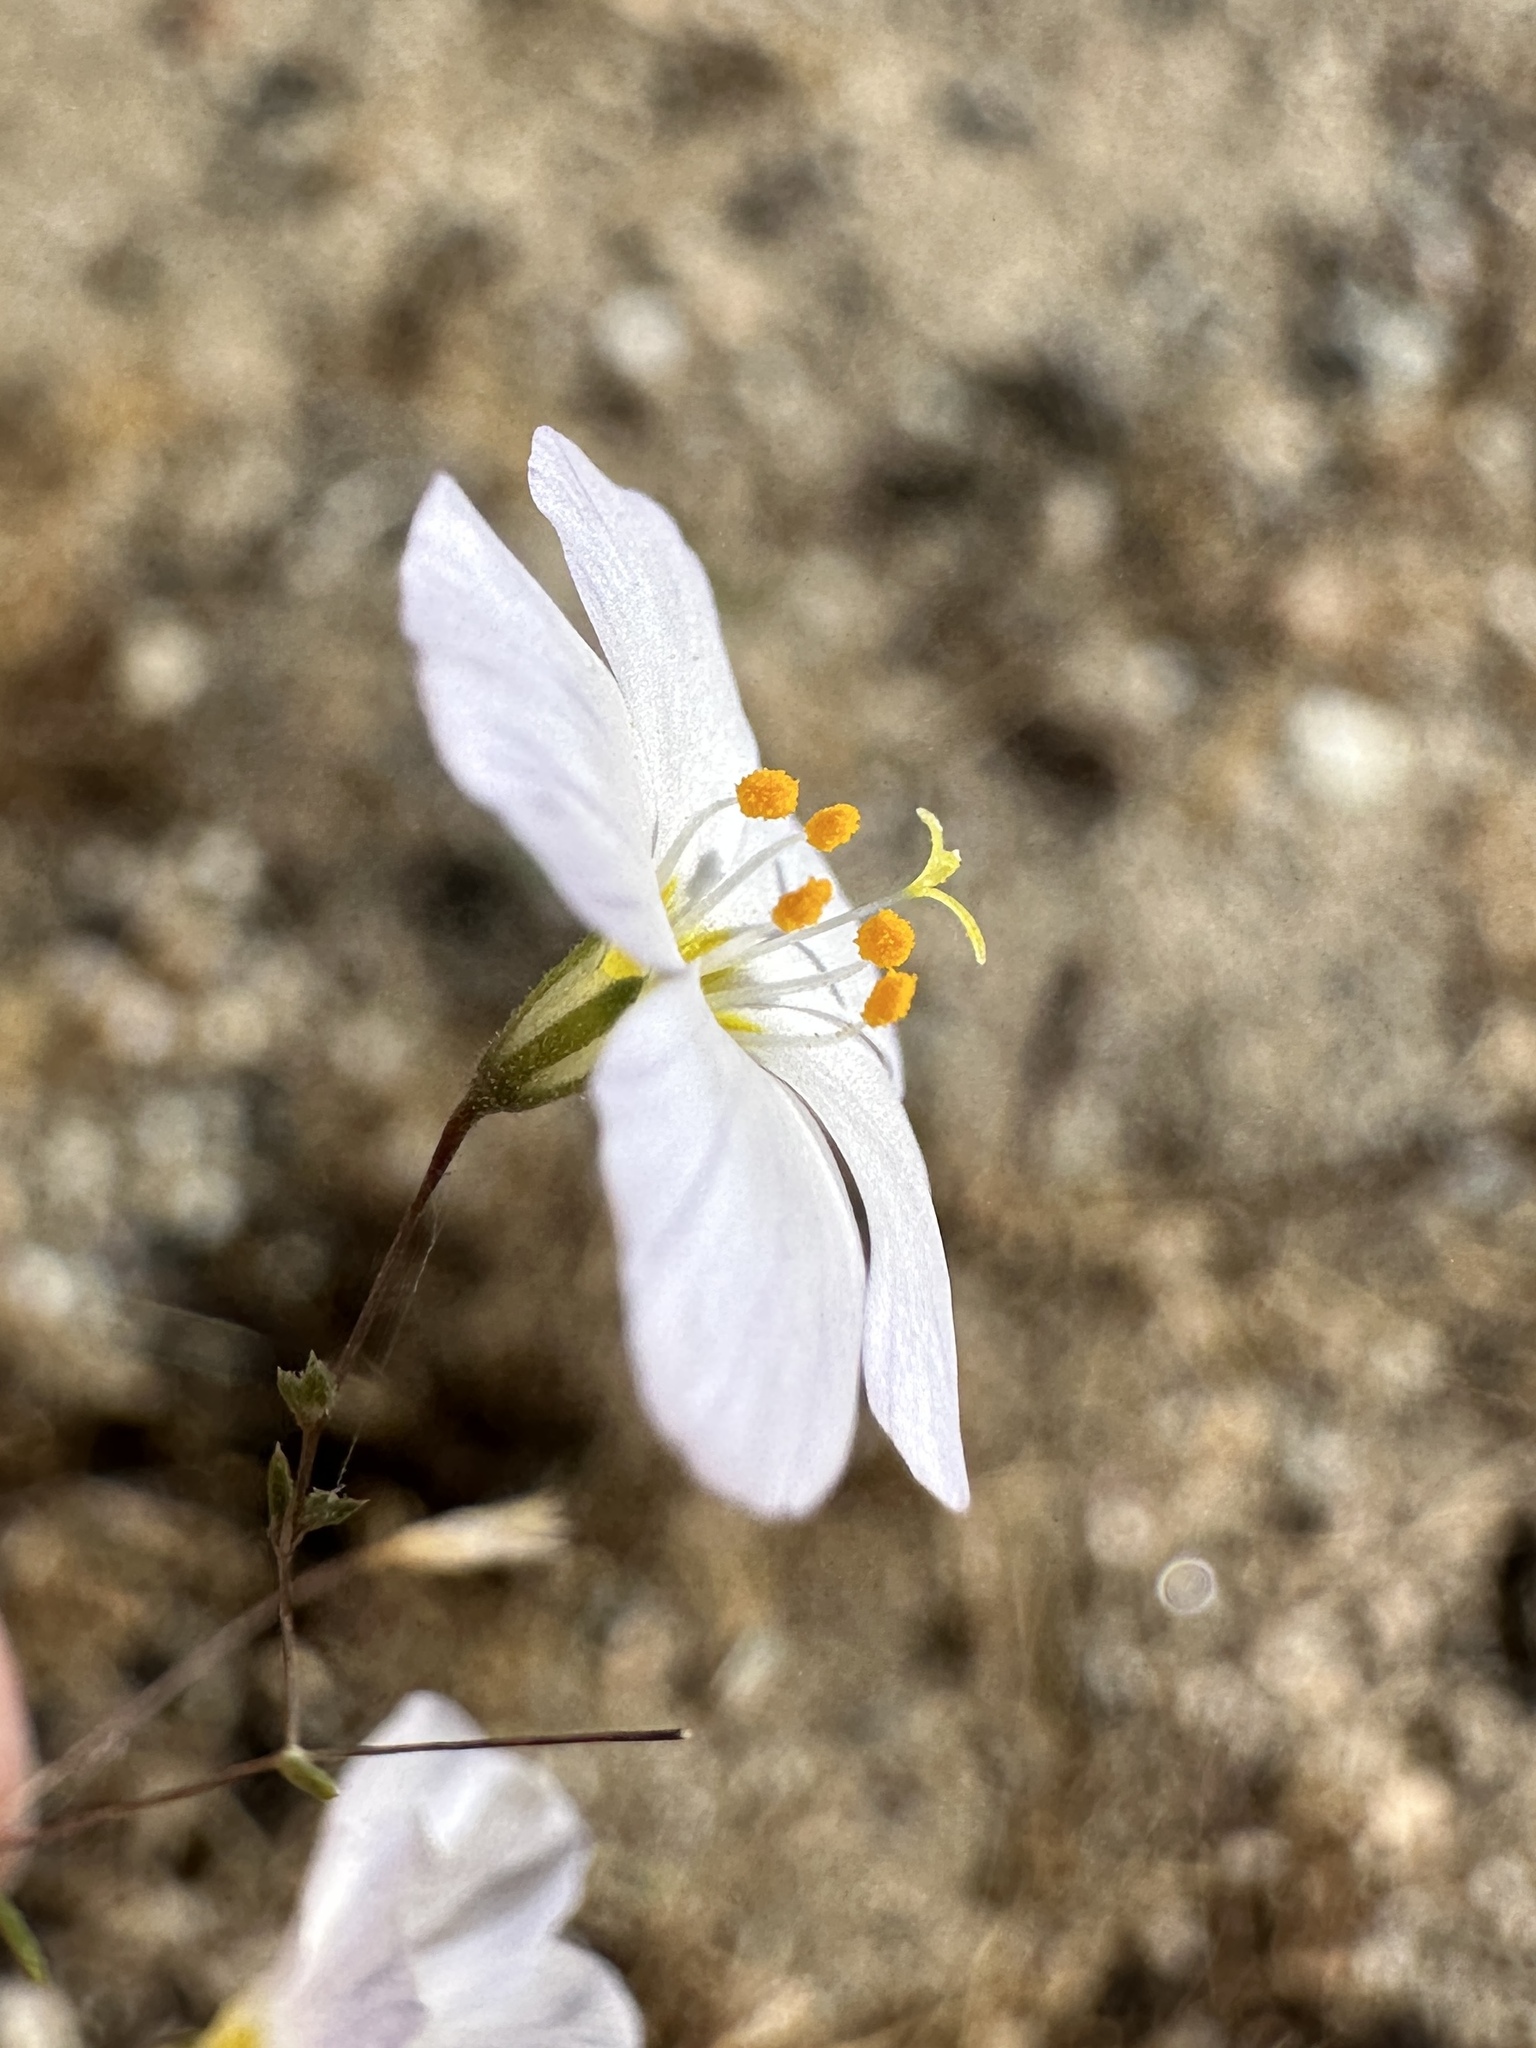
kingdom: Plantae
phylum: Tracheophyta
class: Magnoliopsida
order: Ericales
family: Polemoniaceae
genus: Leptosiphon
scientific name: Leptosiphon liniflorus
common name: Narrowflower flaxflower
